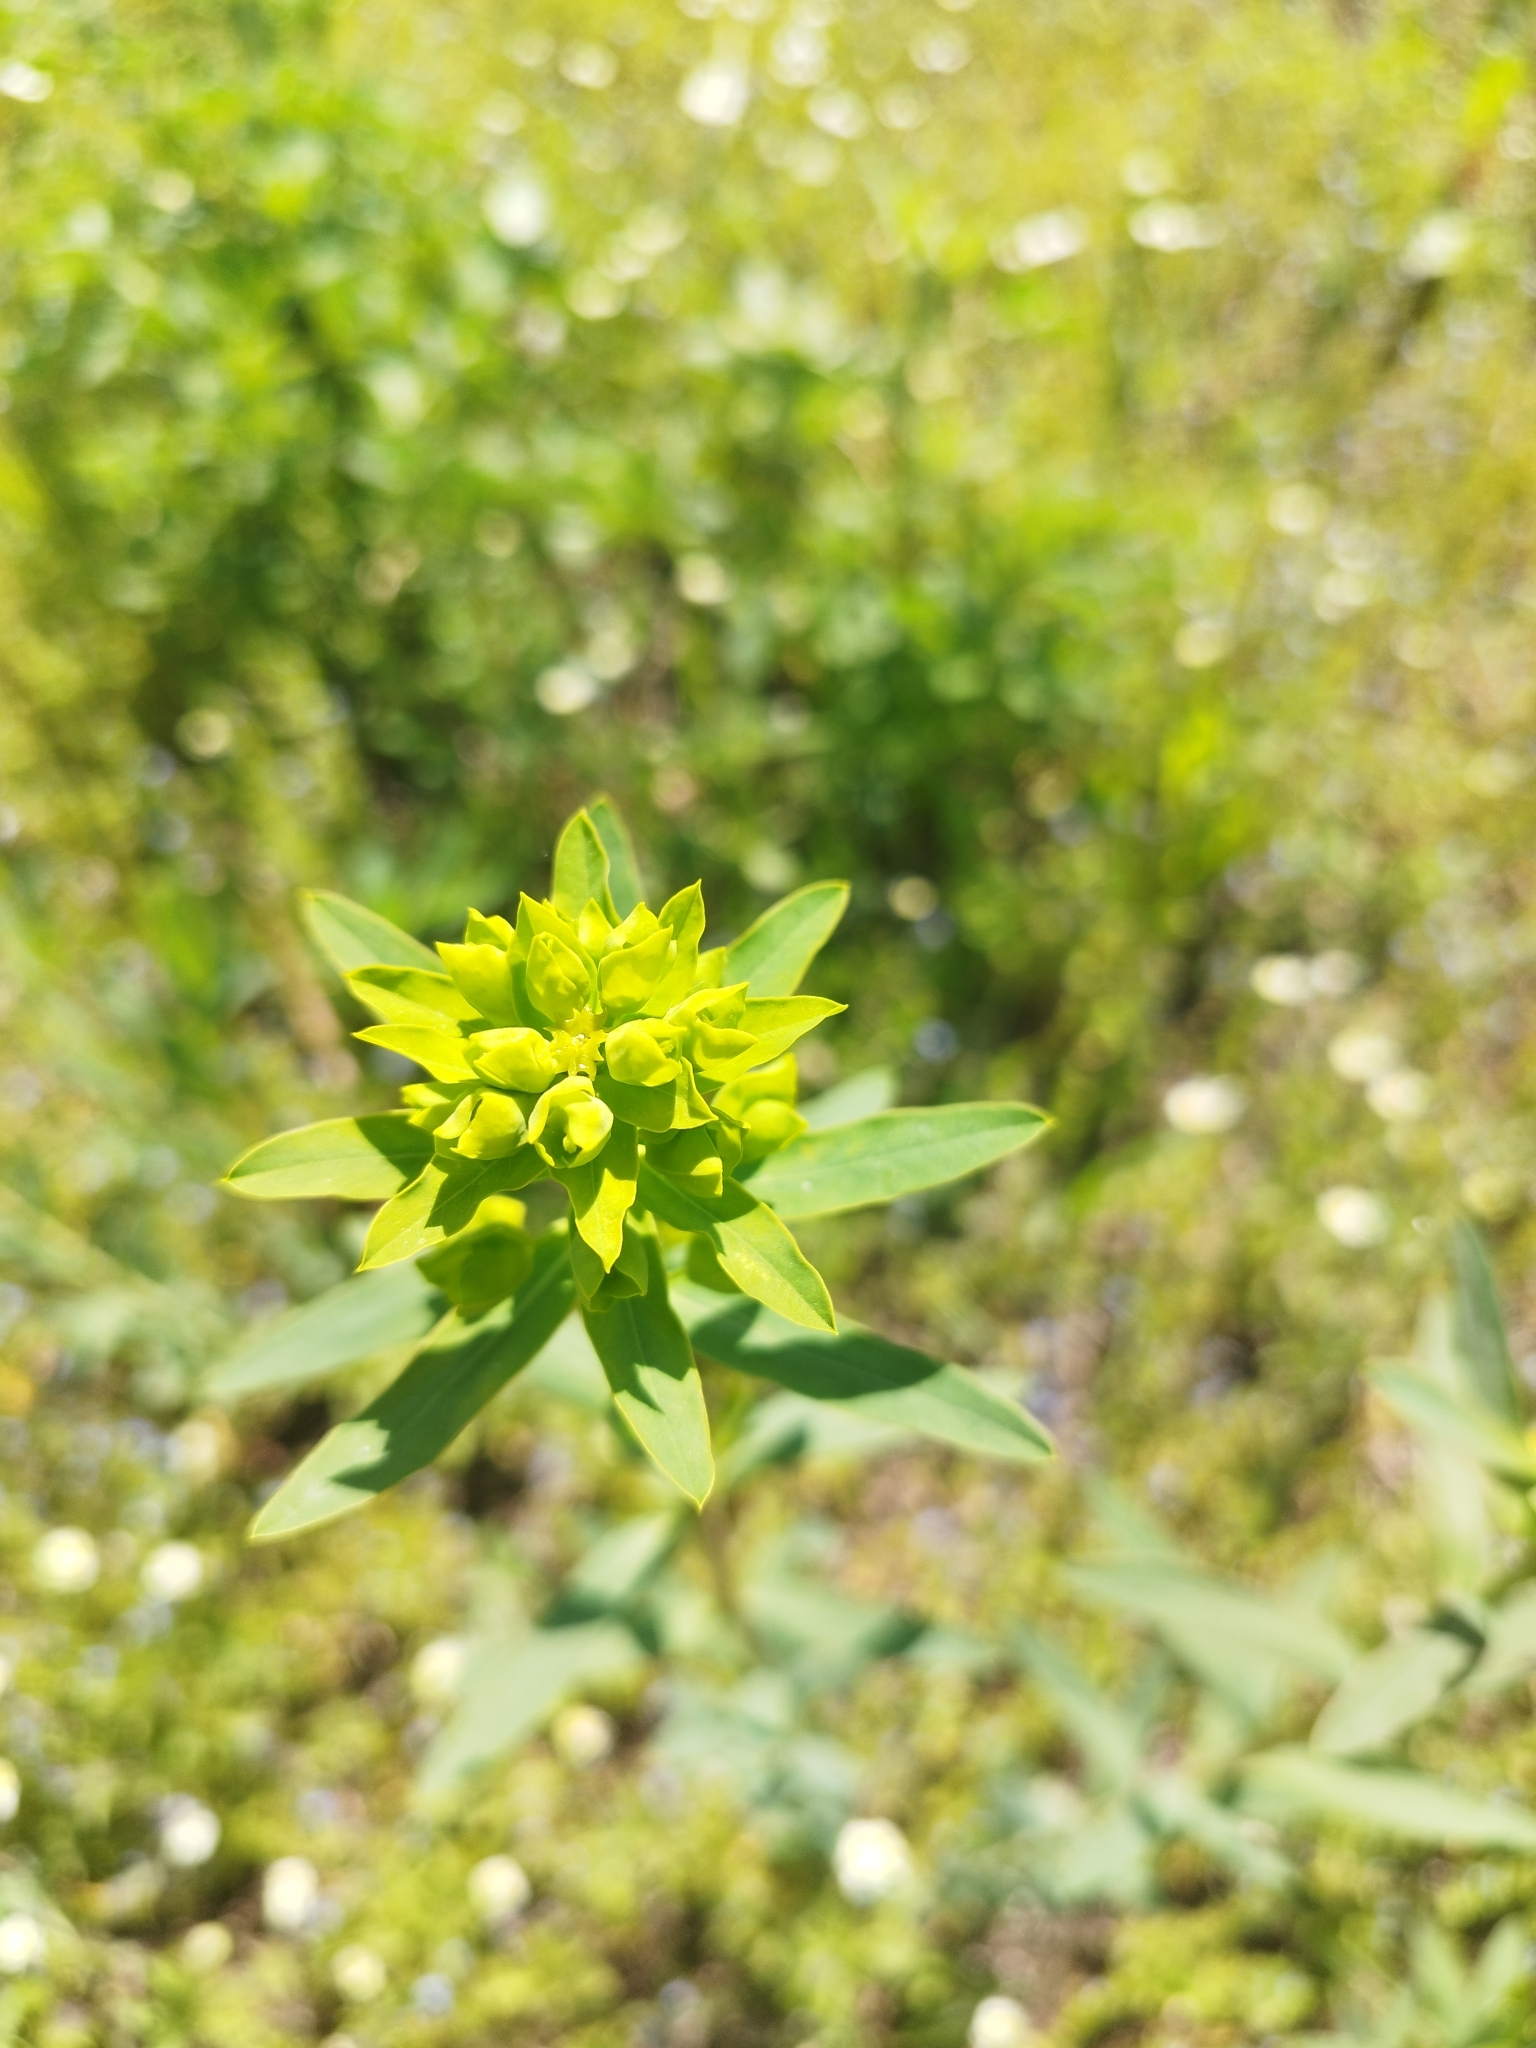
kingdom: Plantae
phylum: Tracheophyta
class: Magnoliopsida
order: Malpighiales
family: Euphorbiaceae
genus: Euphorbia
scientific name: Euphorbia virgata
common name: Leafy spurge
